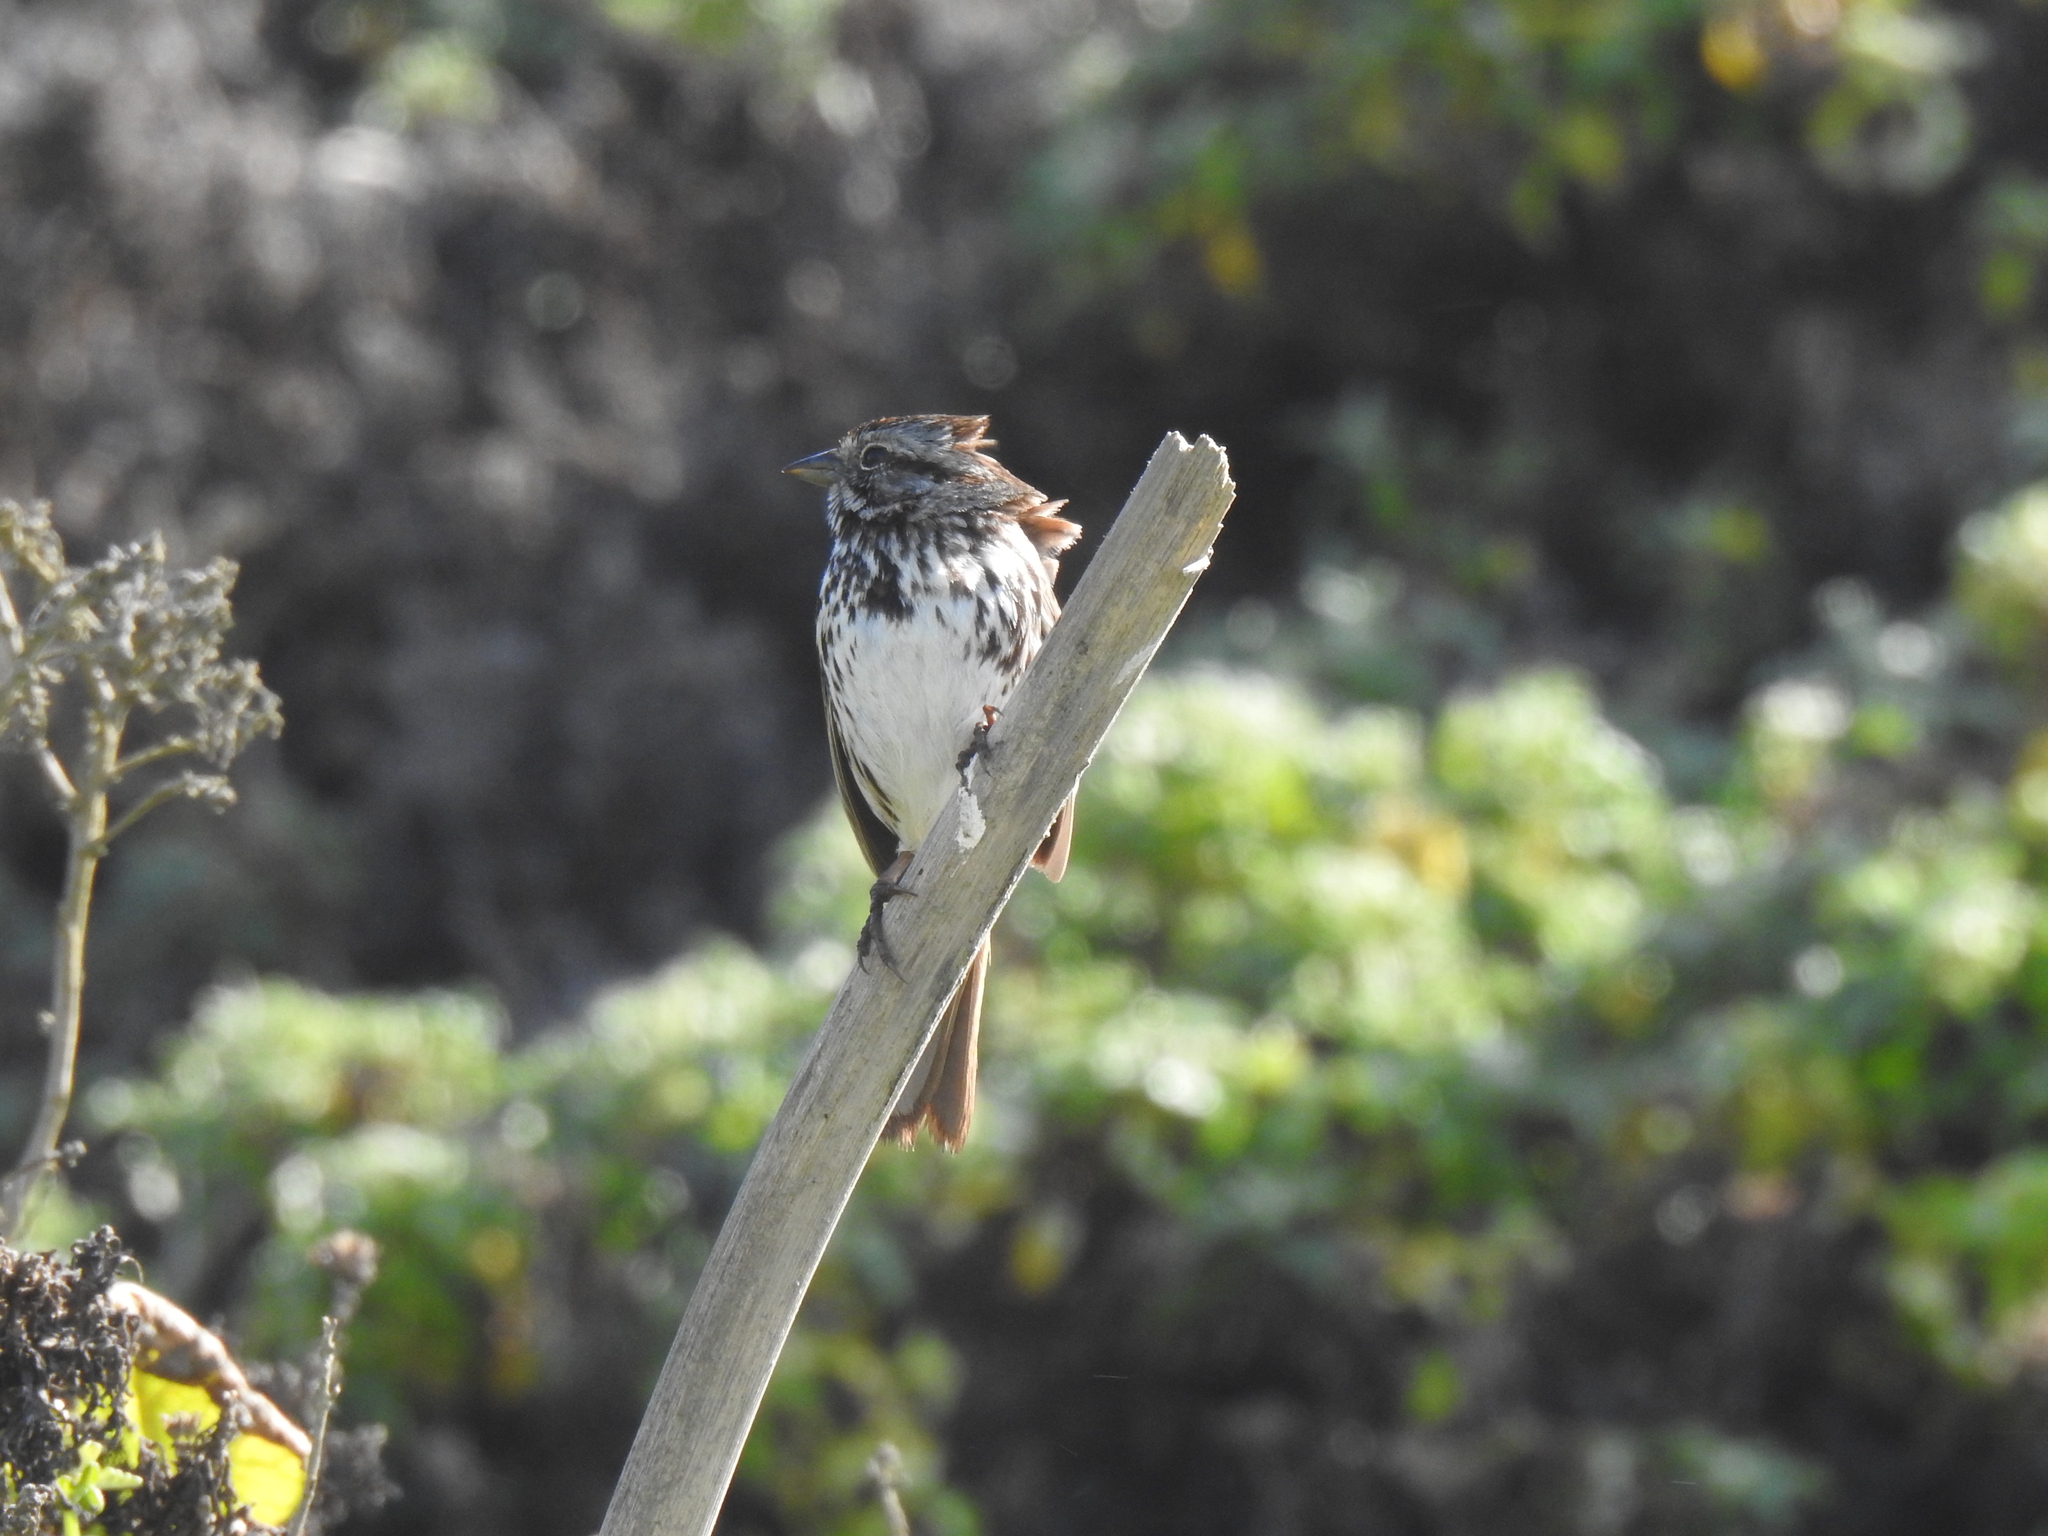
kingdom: Animalia
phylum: Chordata
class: Aves
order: Passeriformes
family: Passerellidae
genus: Melospiza
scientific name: Melospiza melodia
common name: Song sparrow
